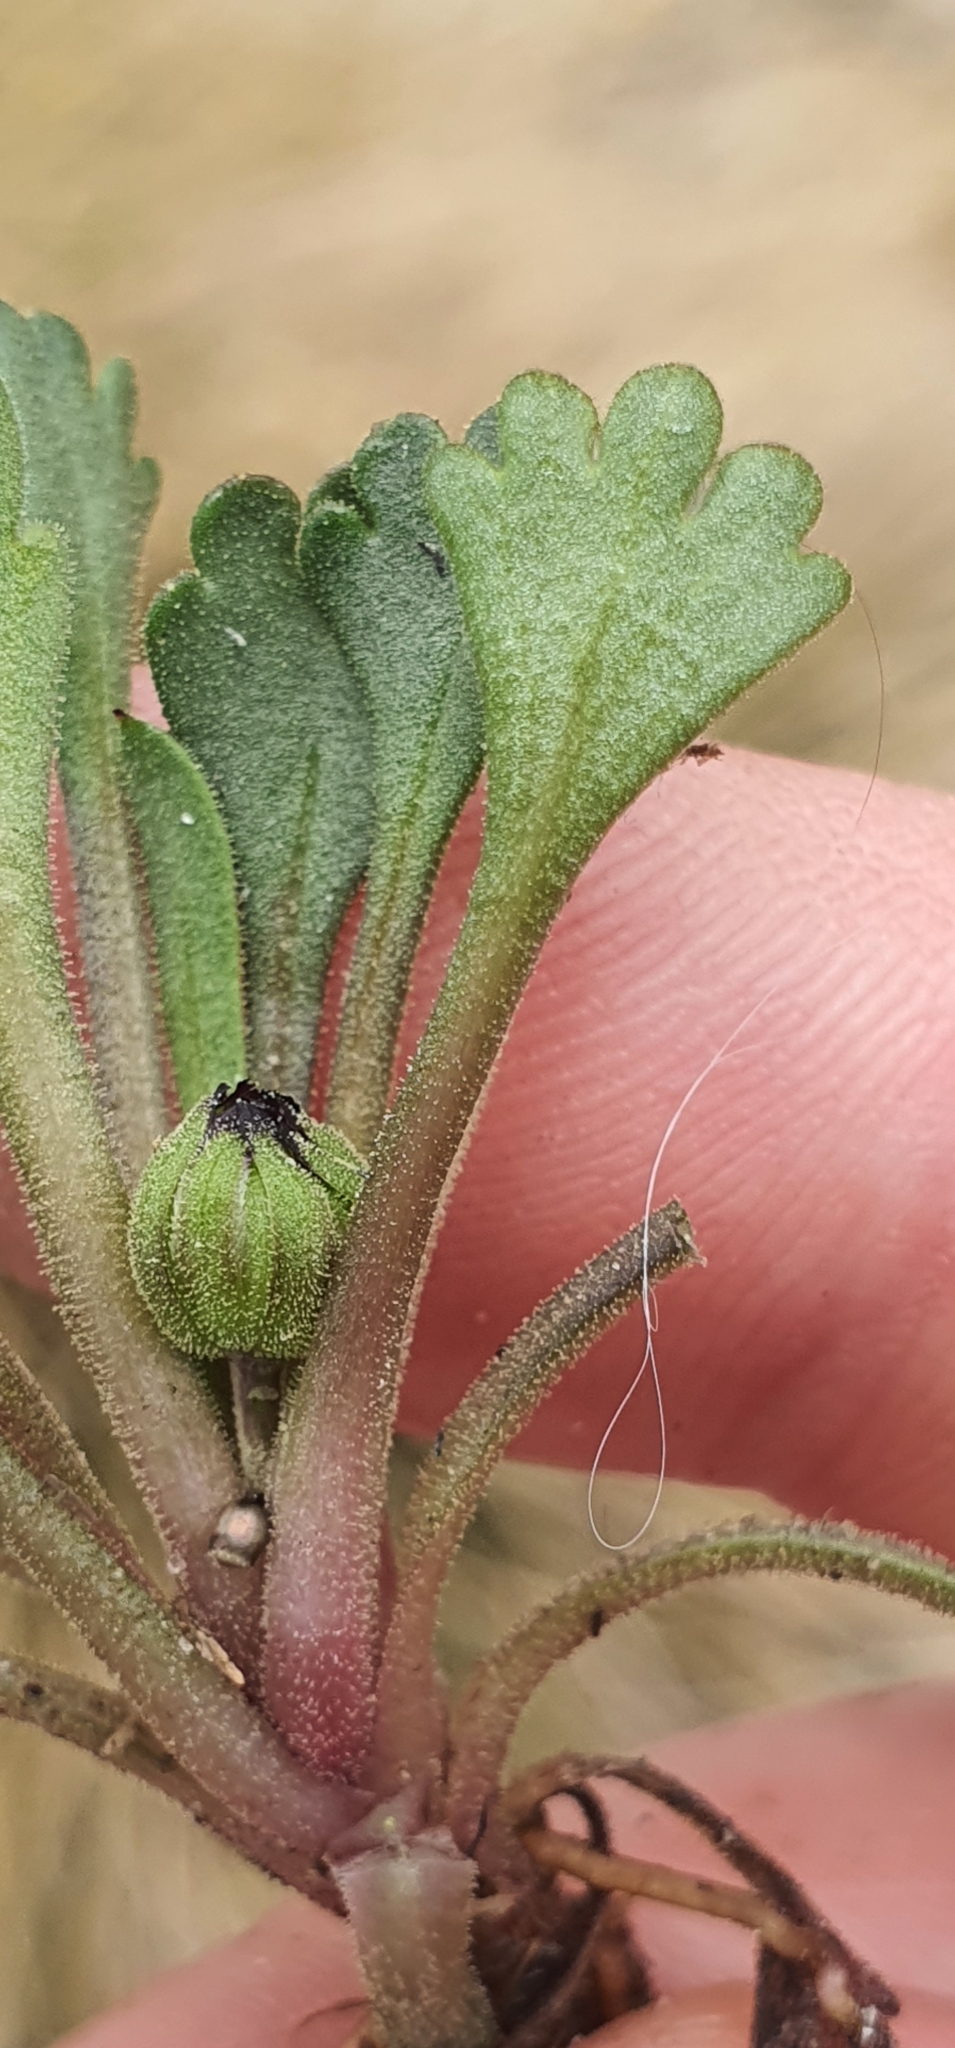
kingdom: Plantae
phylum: Tracheophyta
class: Magnoliopsida
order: Asterales
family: Asteraceae
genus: Brachyscome
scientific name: Brachyscome montana
